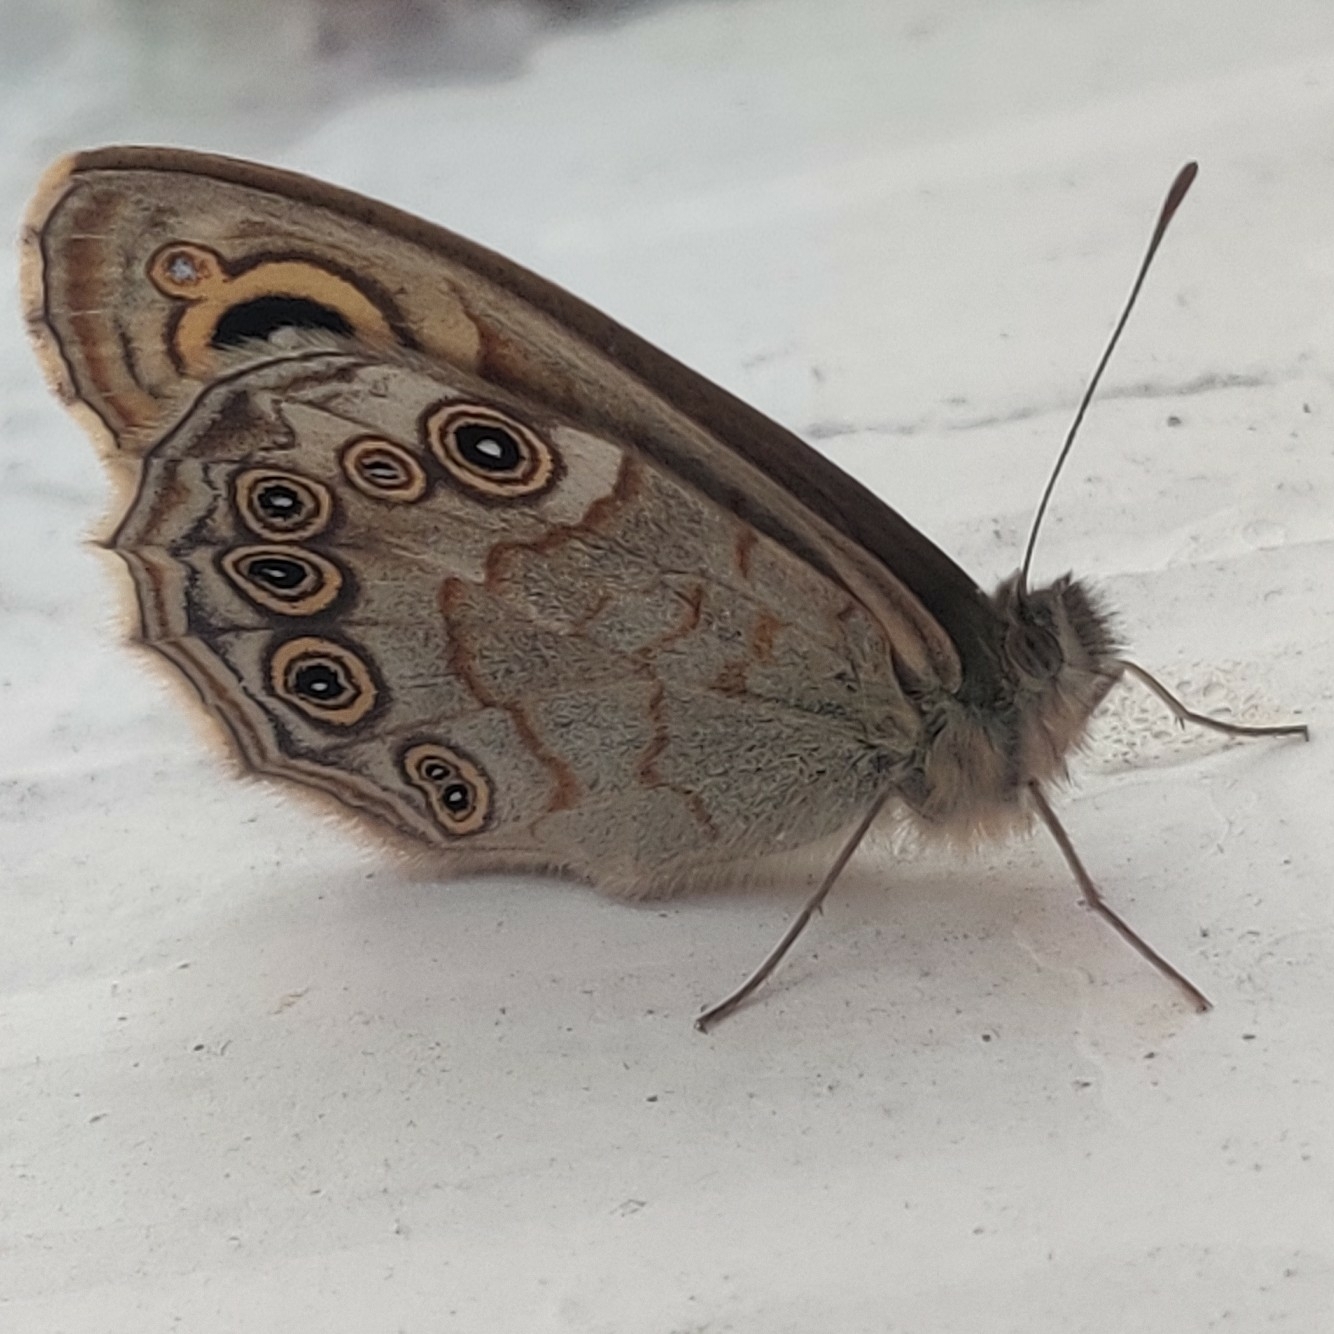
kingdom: Animalia
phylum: Arthropoda
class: Insecta
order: Lepidoptera
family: Nymphalidae
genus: Pararge
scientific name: Pararge Lasiommata schakra
